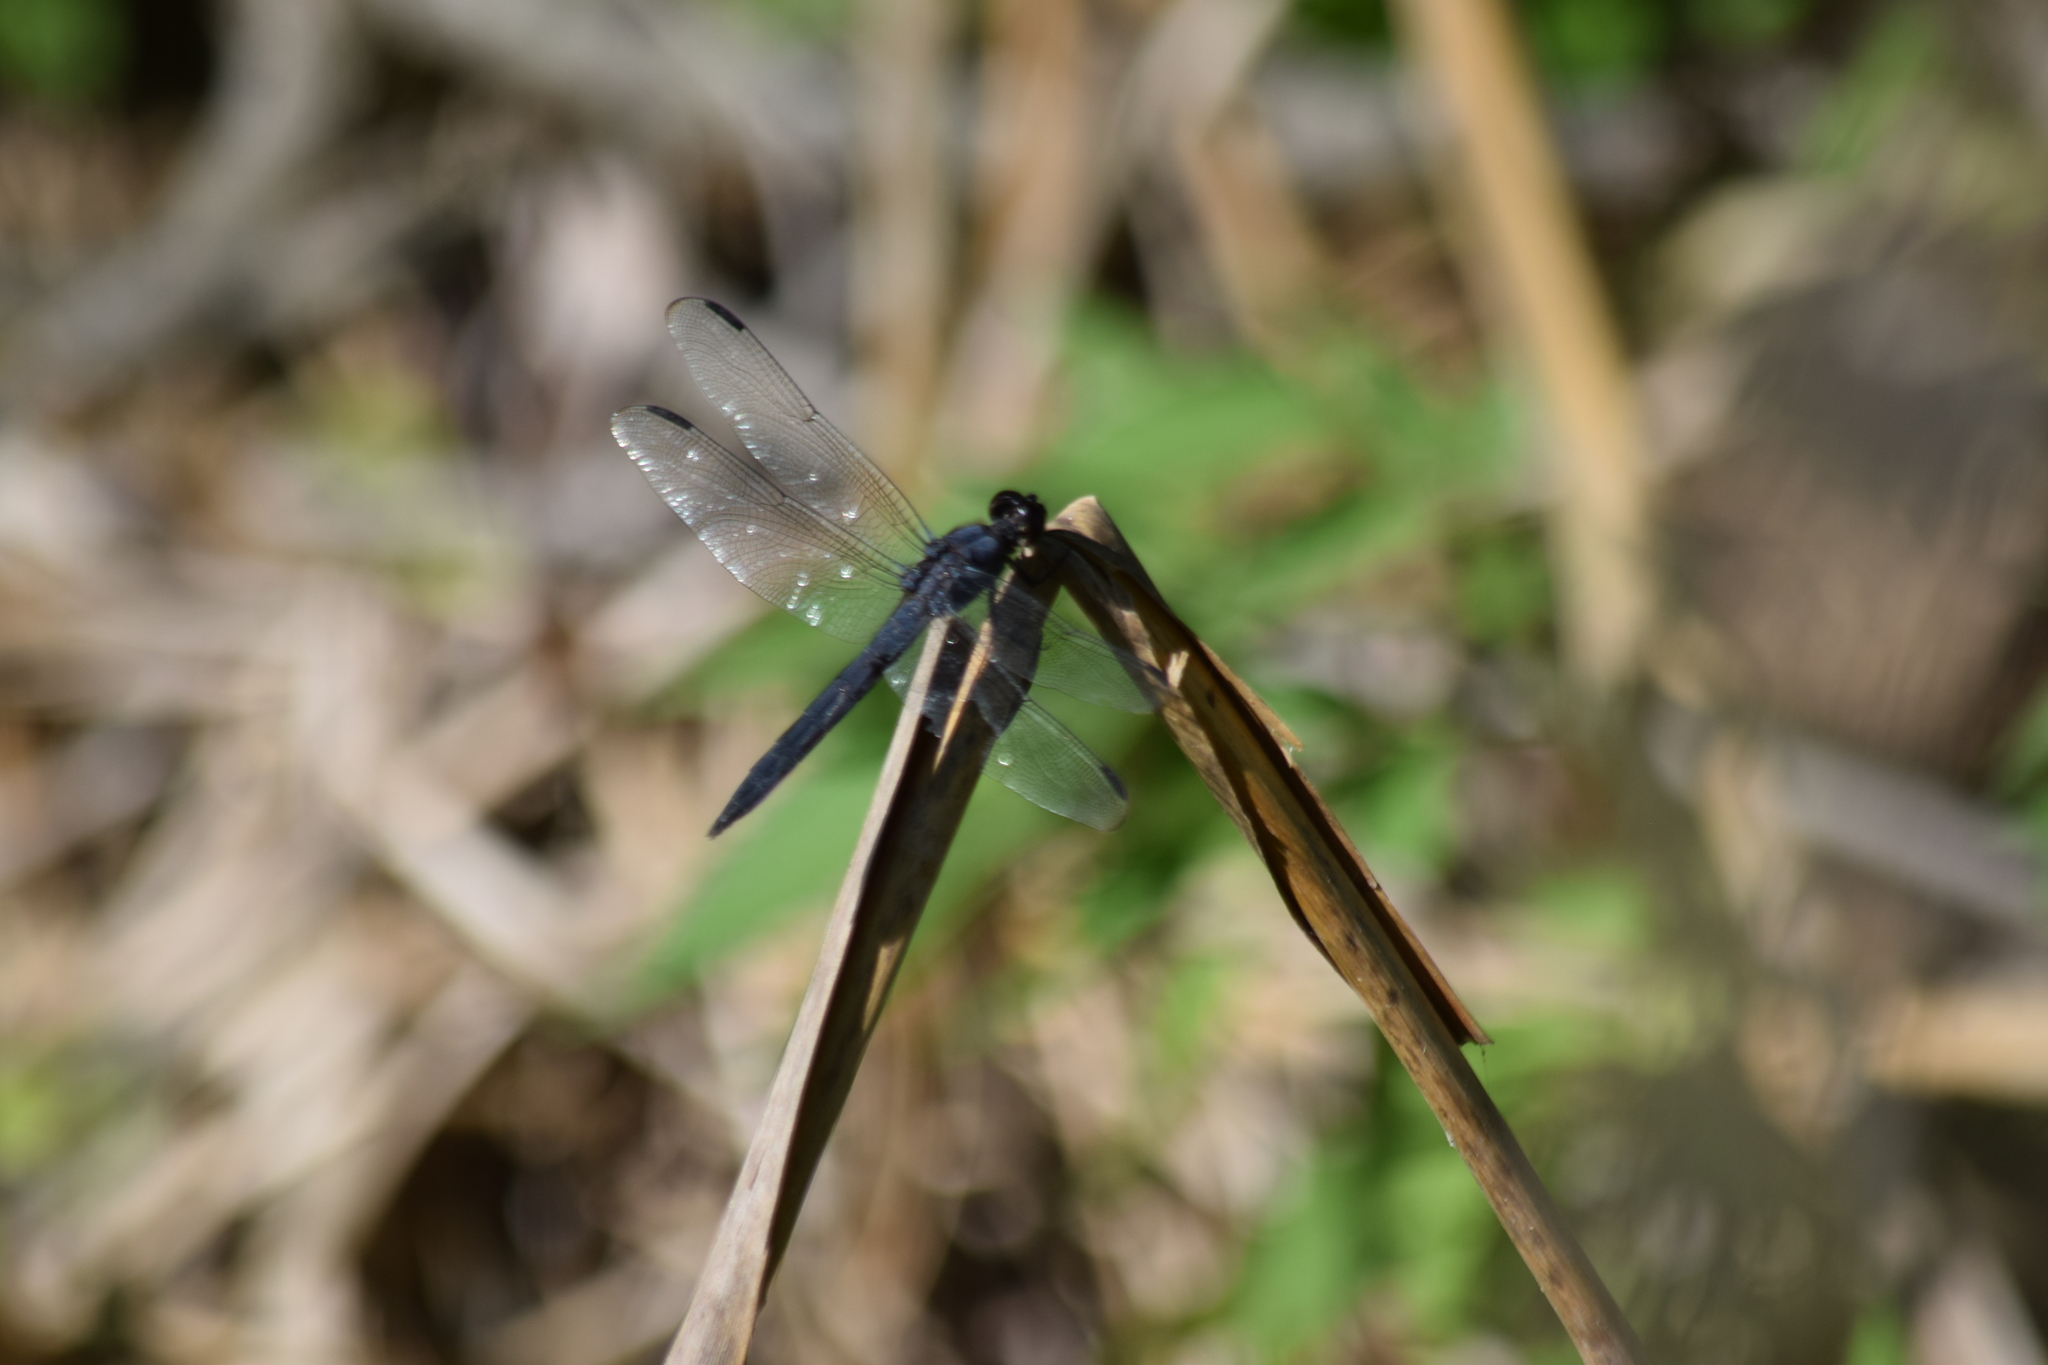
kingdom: Animalia
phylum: Arthropoda
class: Insecta
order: Odonata
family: Libellulidae
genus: Libellula
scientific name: Libellula incesta
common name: Slaty skimmer
